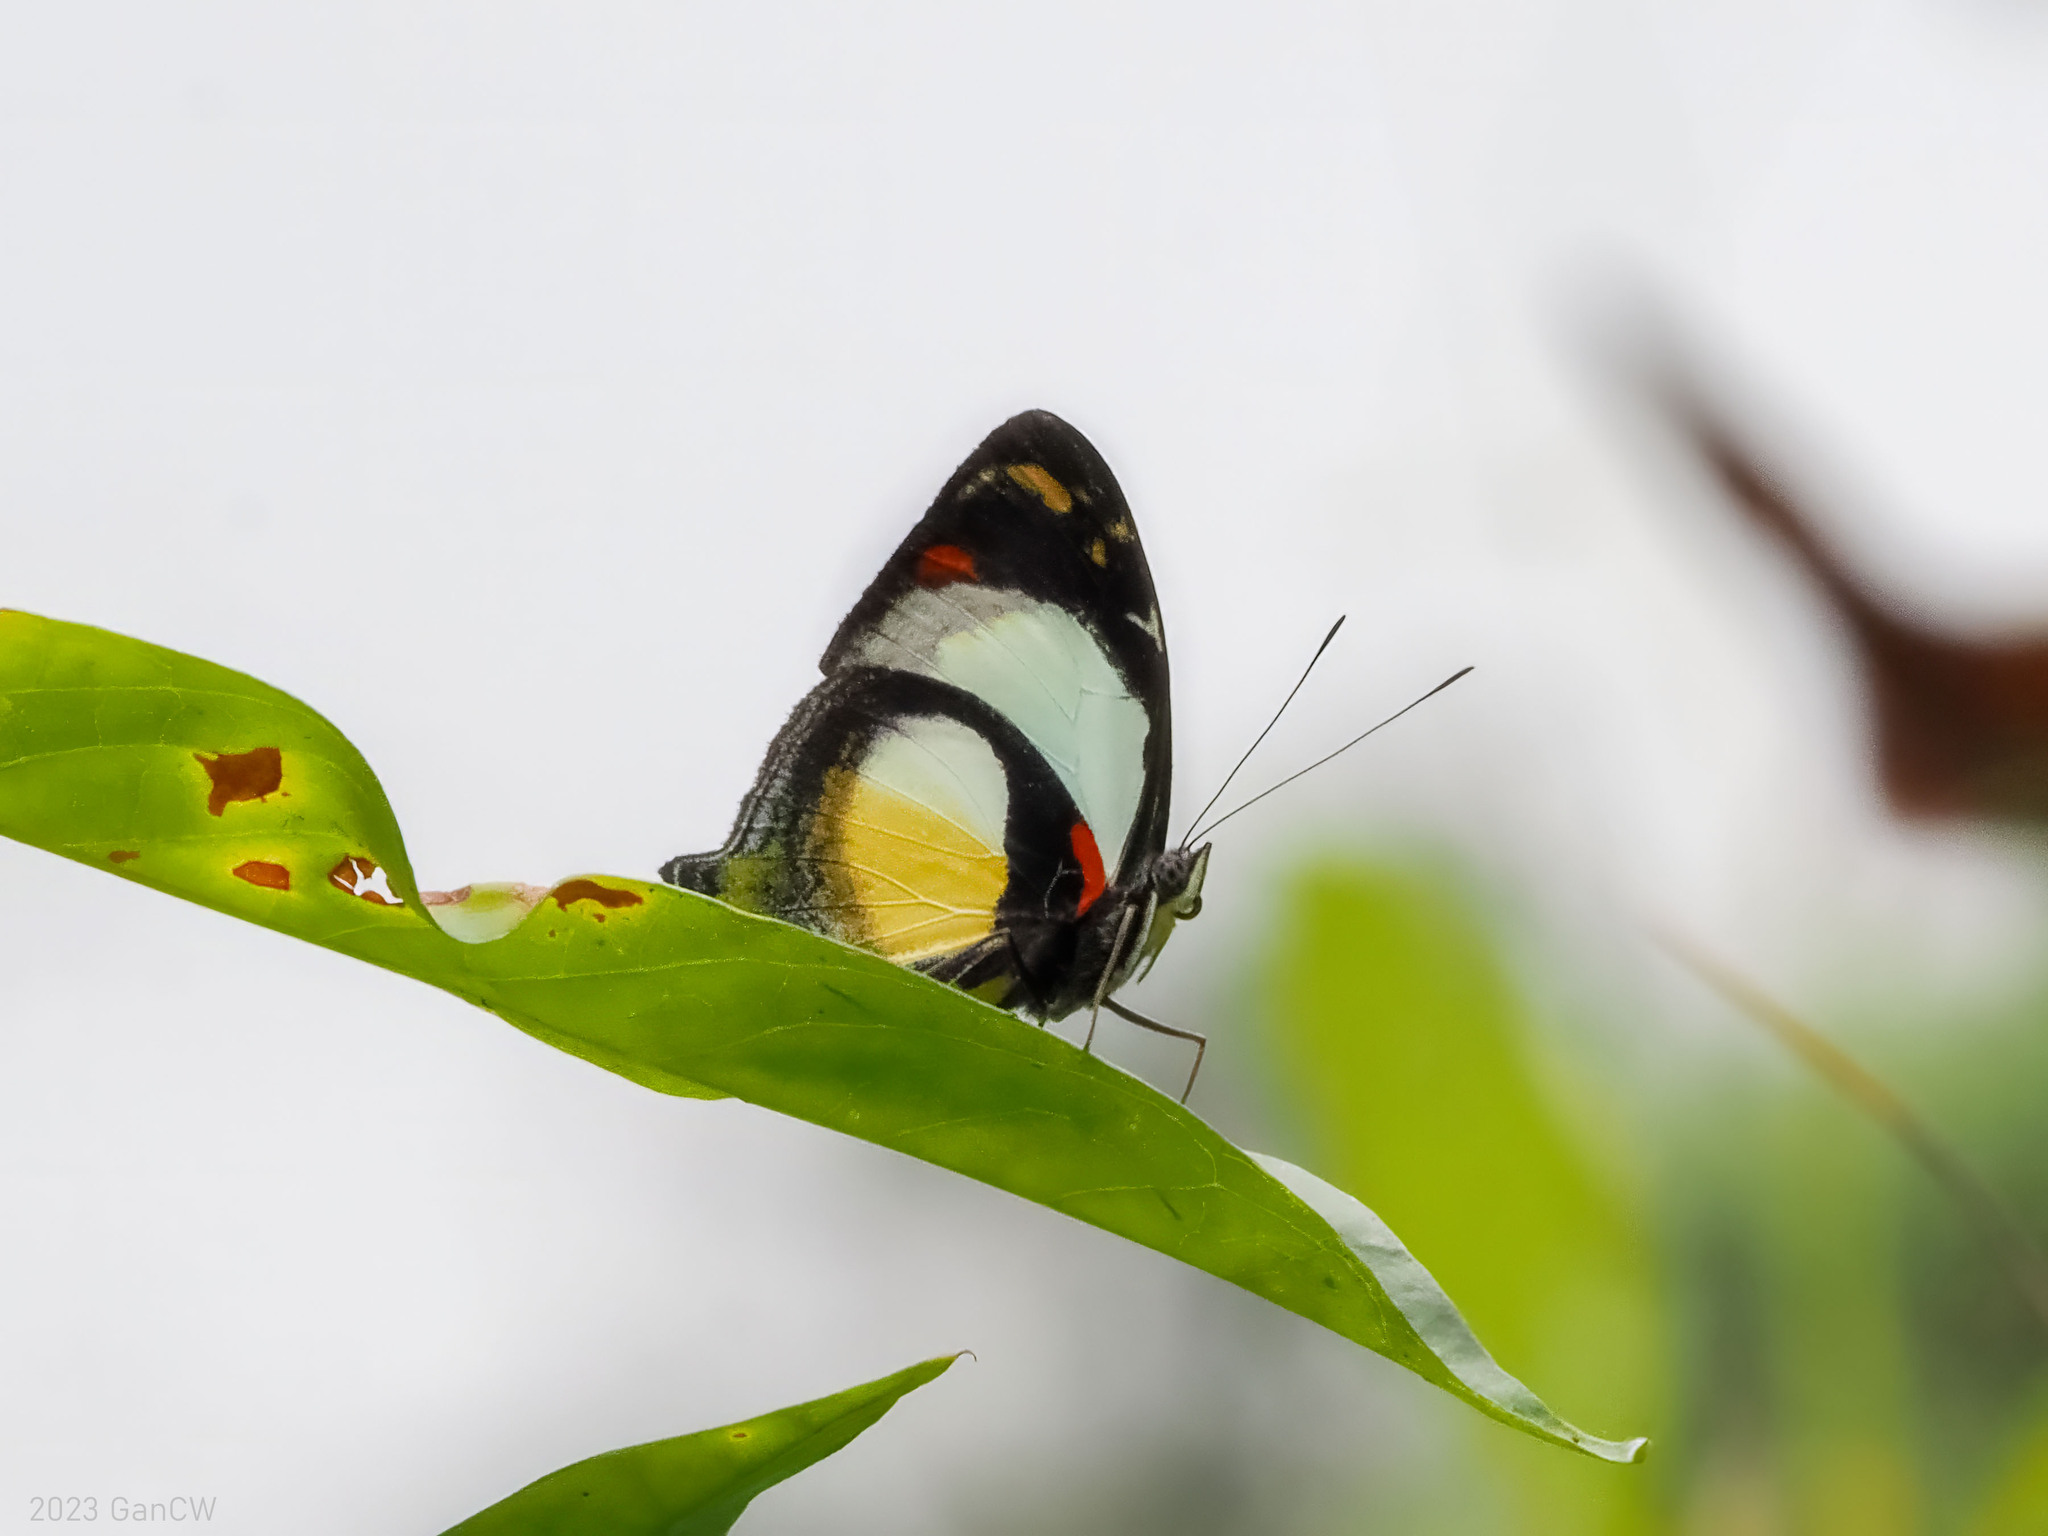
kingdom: Animalia
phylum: Arthropoda
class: Insecta
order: Lepidoptera
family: Nymphalidae
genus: Mynes
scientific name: Mynes geoffroyi
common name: Jezebel nymph
